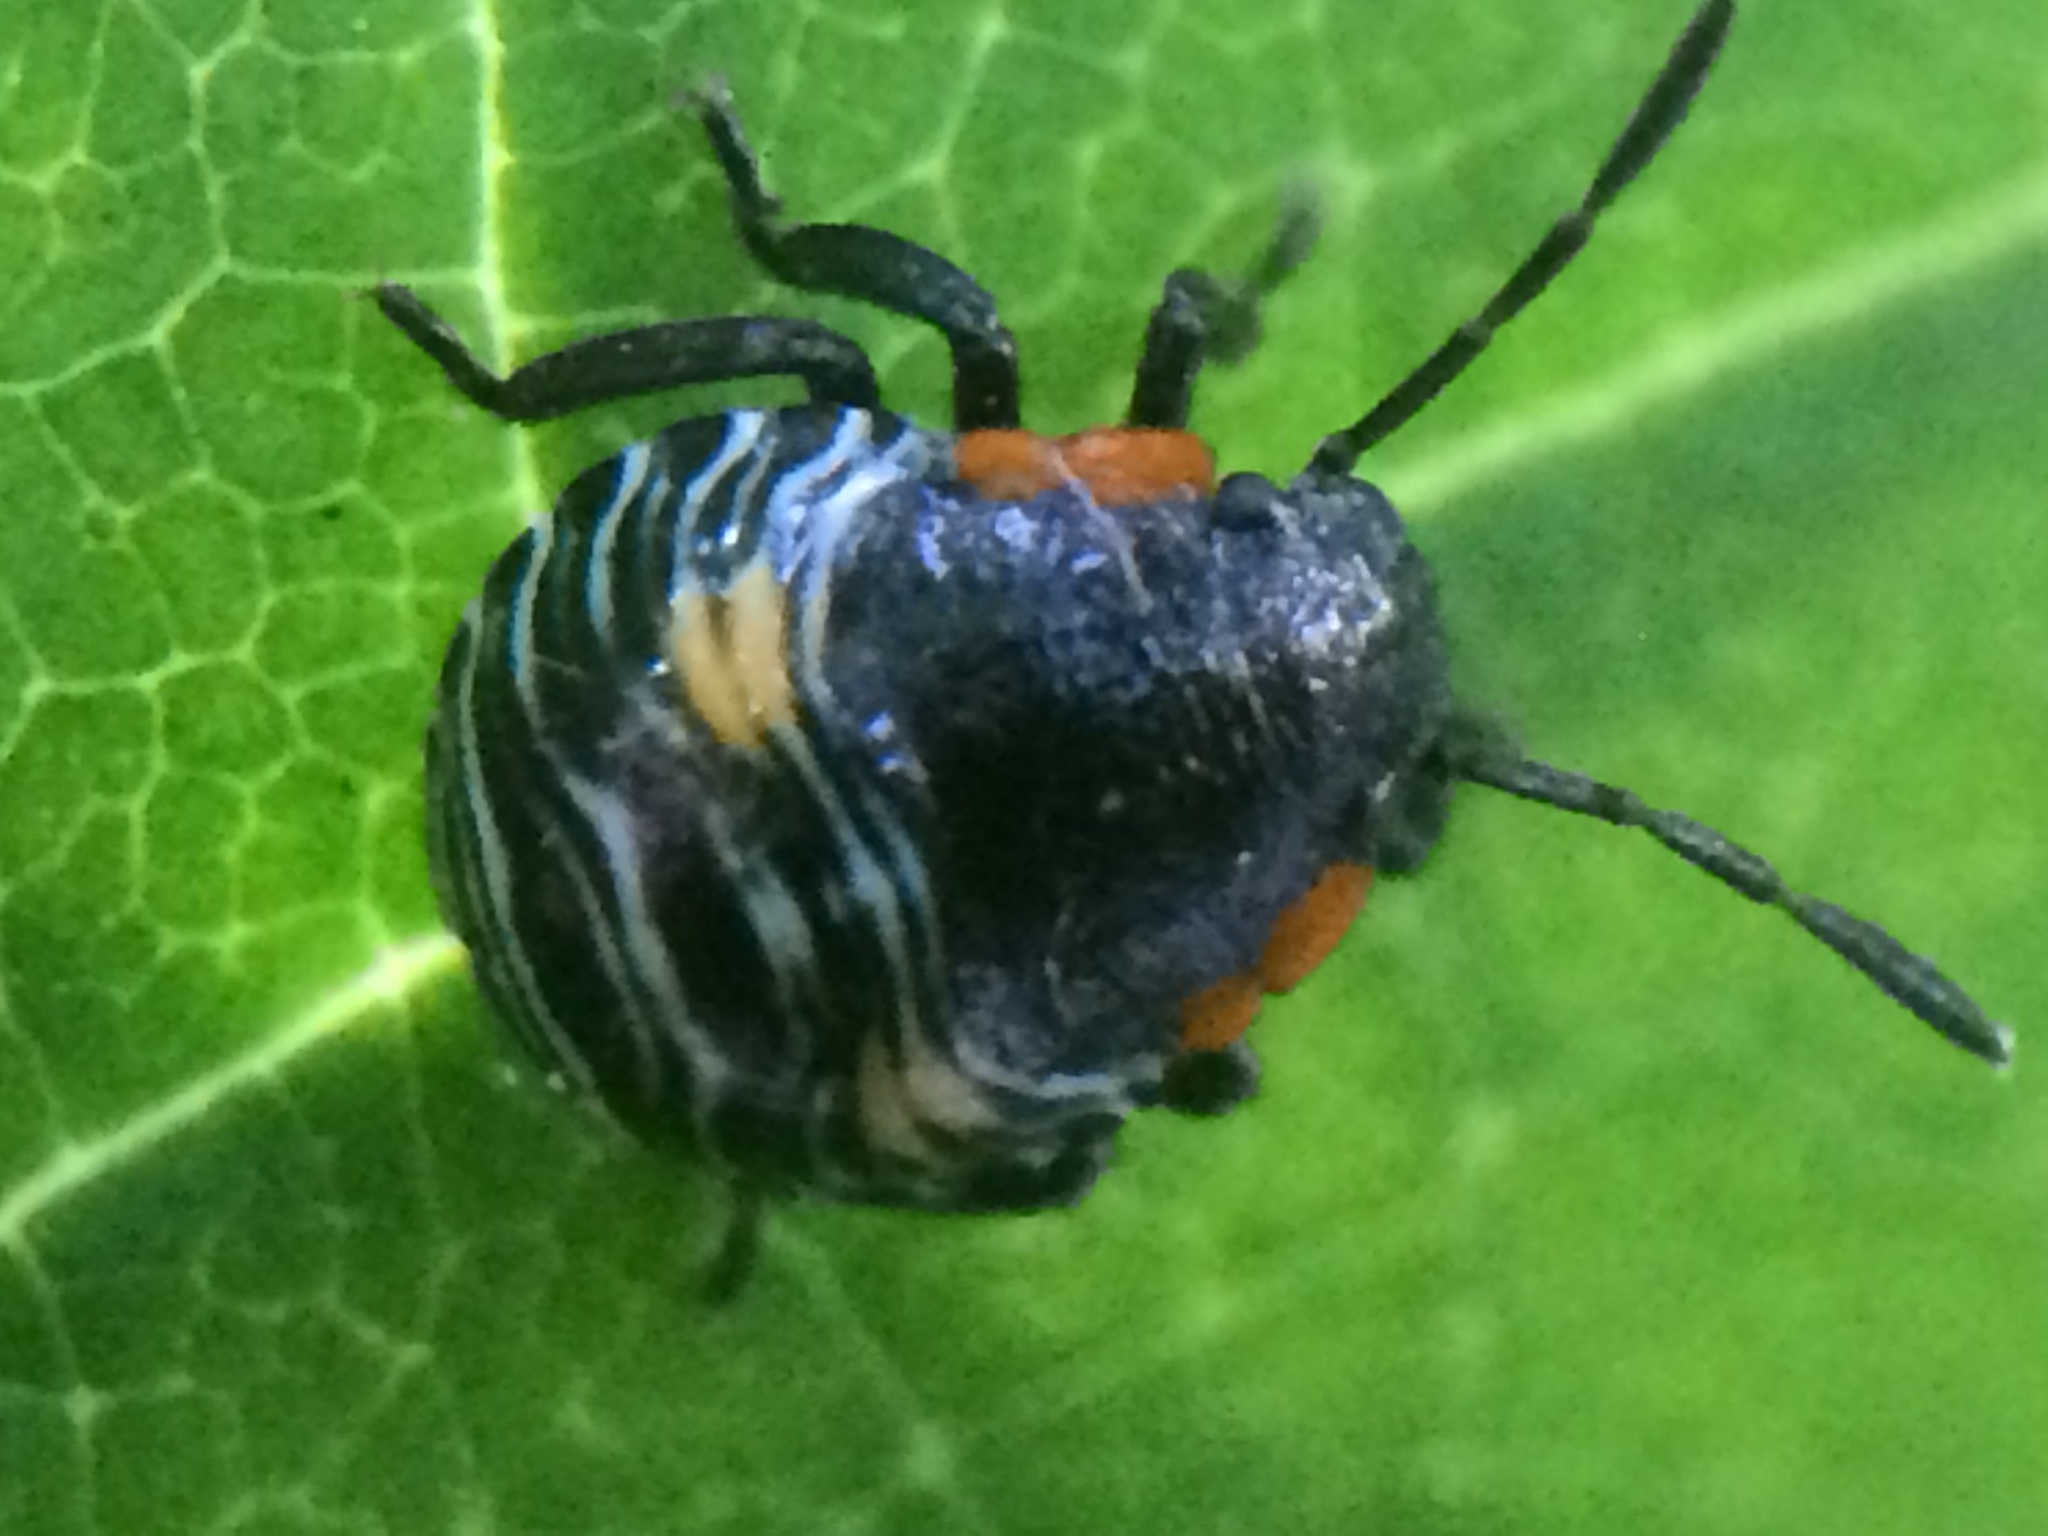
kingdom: Animalia
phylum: Arthropoda
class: Insecta
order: Hemiptera
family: Pentatomidae
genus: Chinavia
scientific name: Chinavia hilaris
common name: Green stink bug
